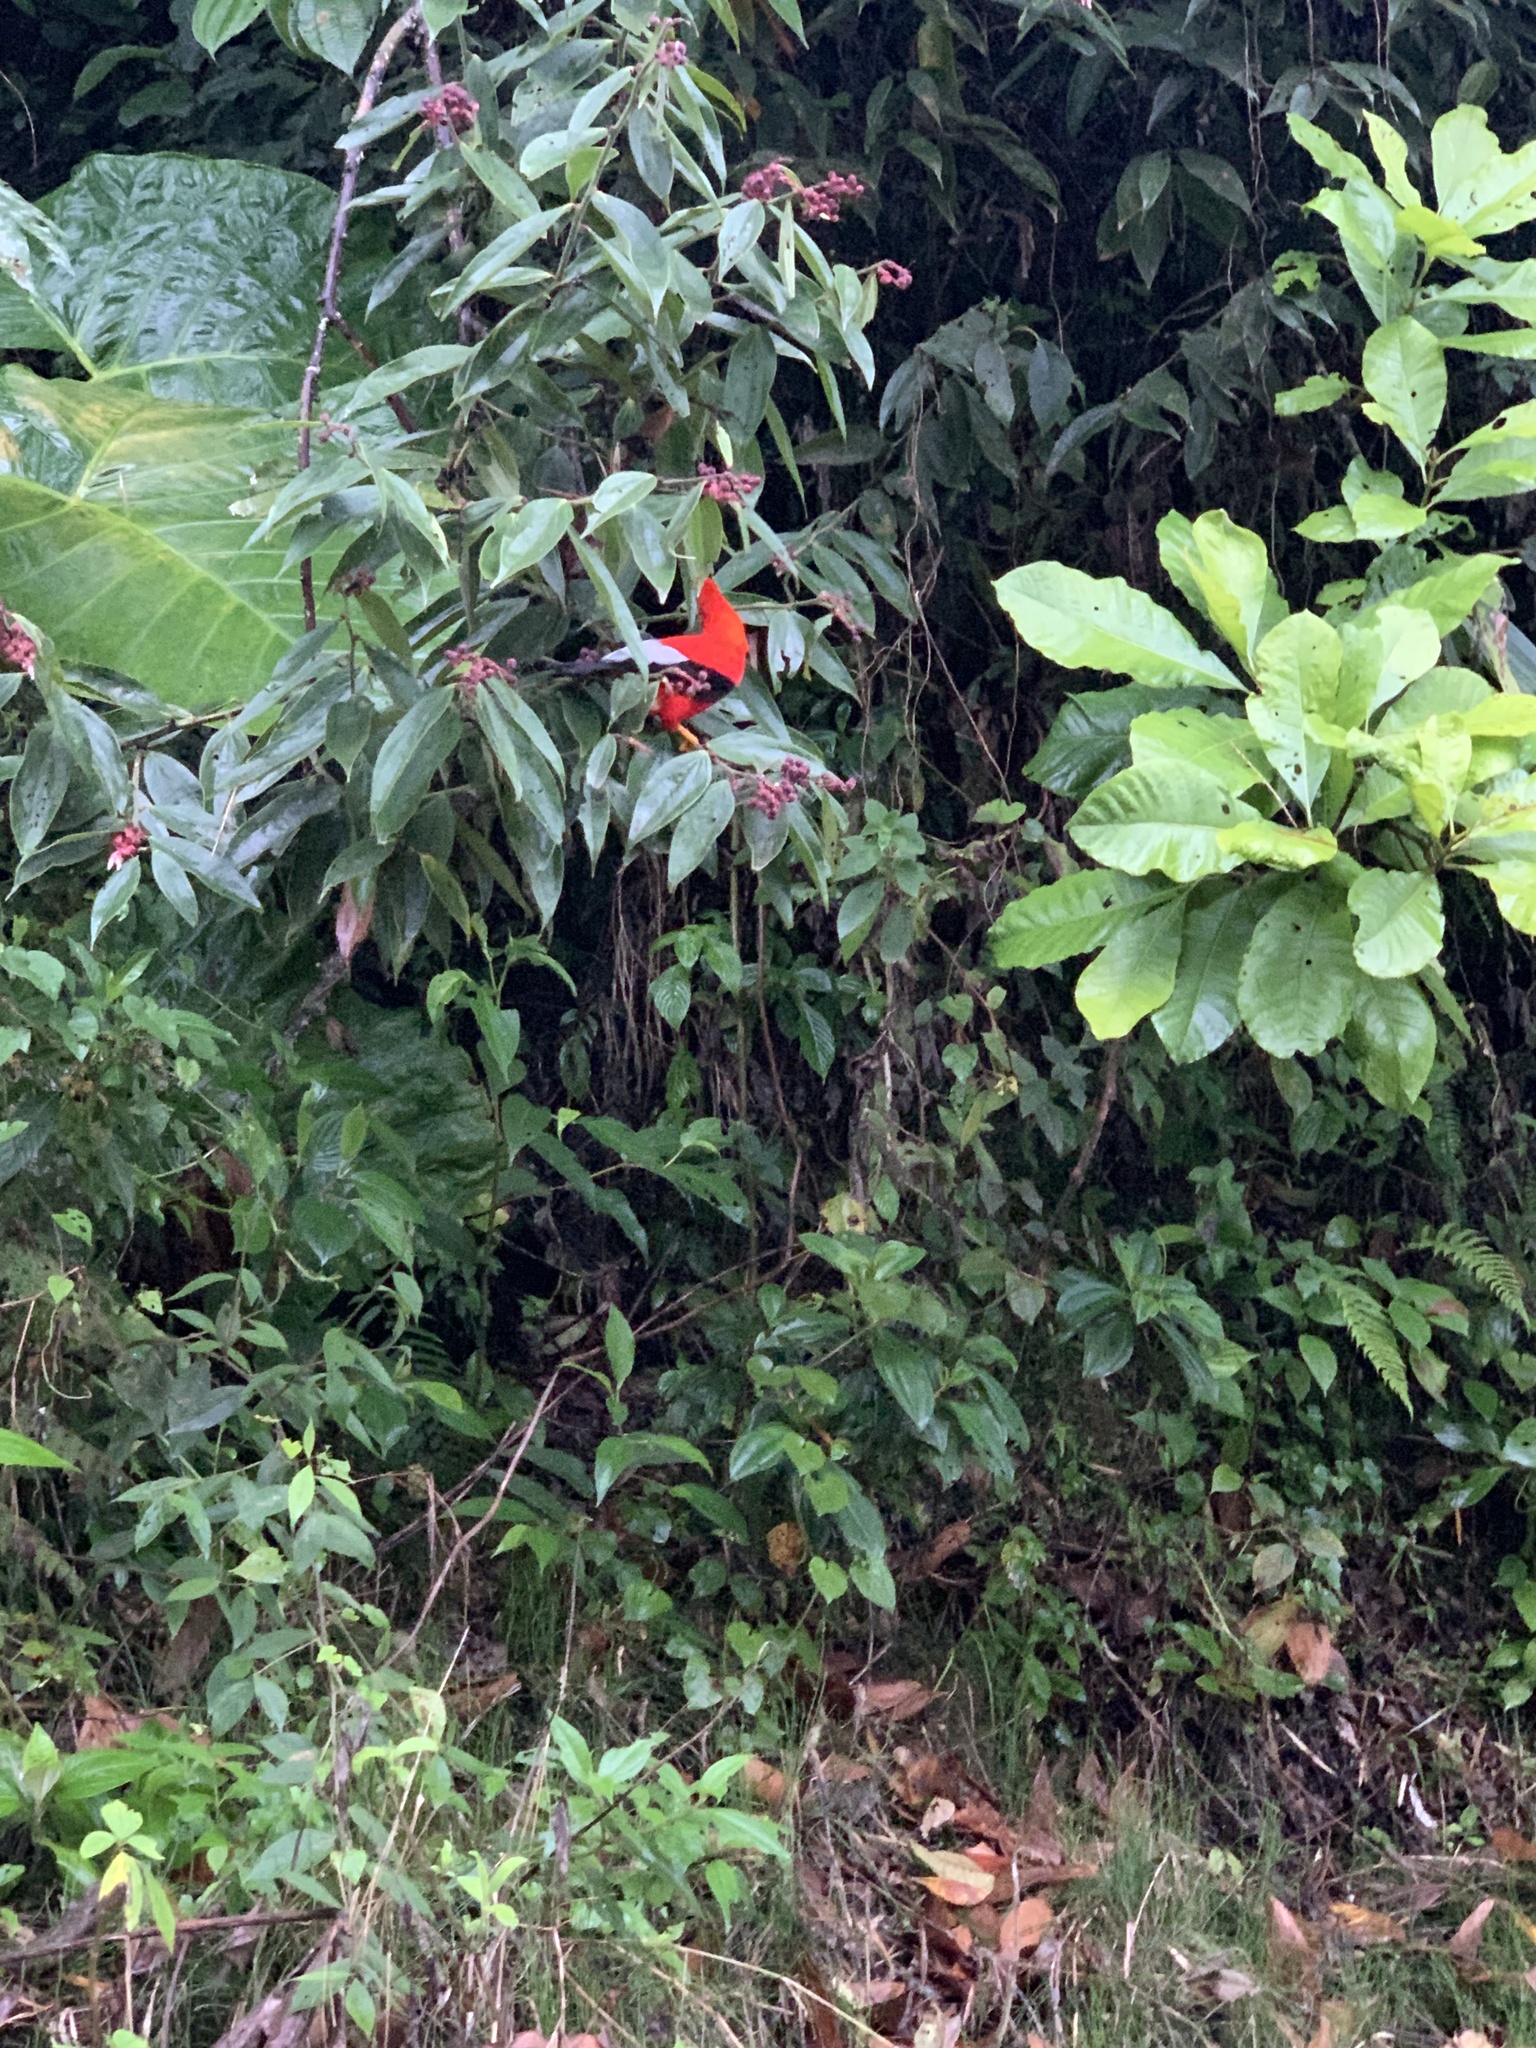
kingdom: Animalia
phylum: Chordata
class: Aves
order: Passeriformes
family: Cotingidae
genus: Rupicola
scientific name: Rupicola peruvianus
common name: Andean cock-of-the-rock
